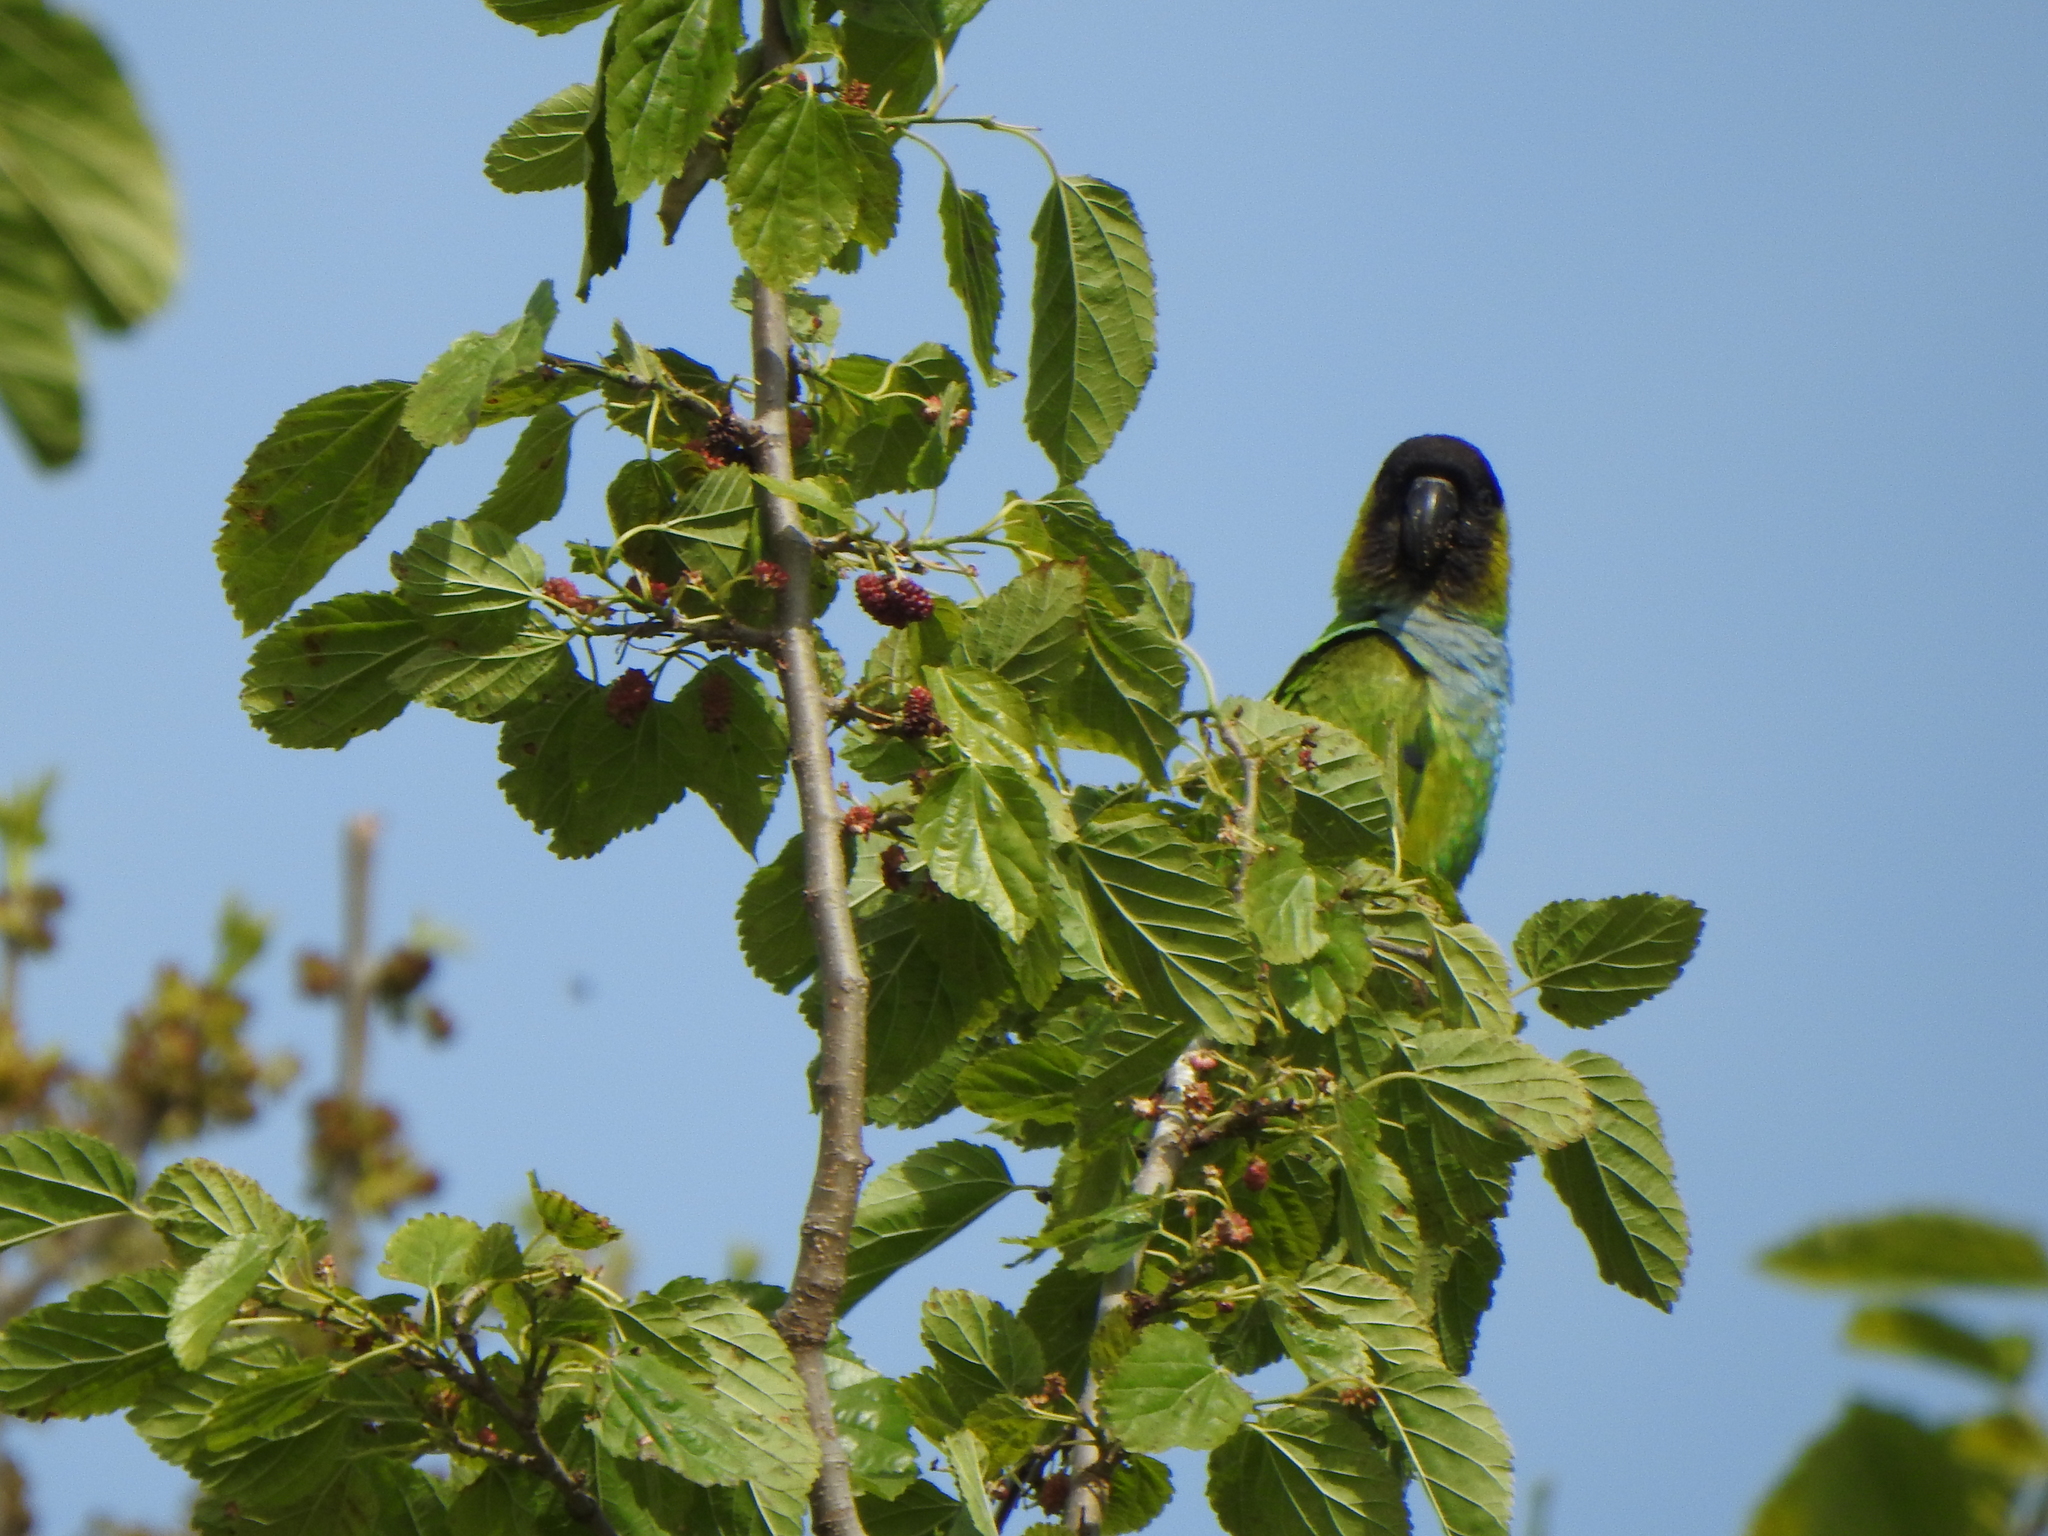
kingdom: Animalia
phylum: Chordata
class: Aves
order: Psittaciformes
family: Psittacidae
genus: Nandayus
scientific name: Nandayus nenday
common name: Nanday parakeet
